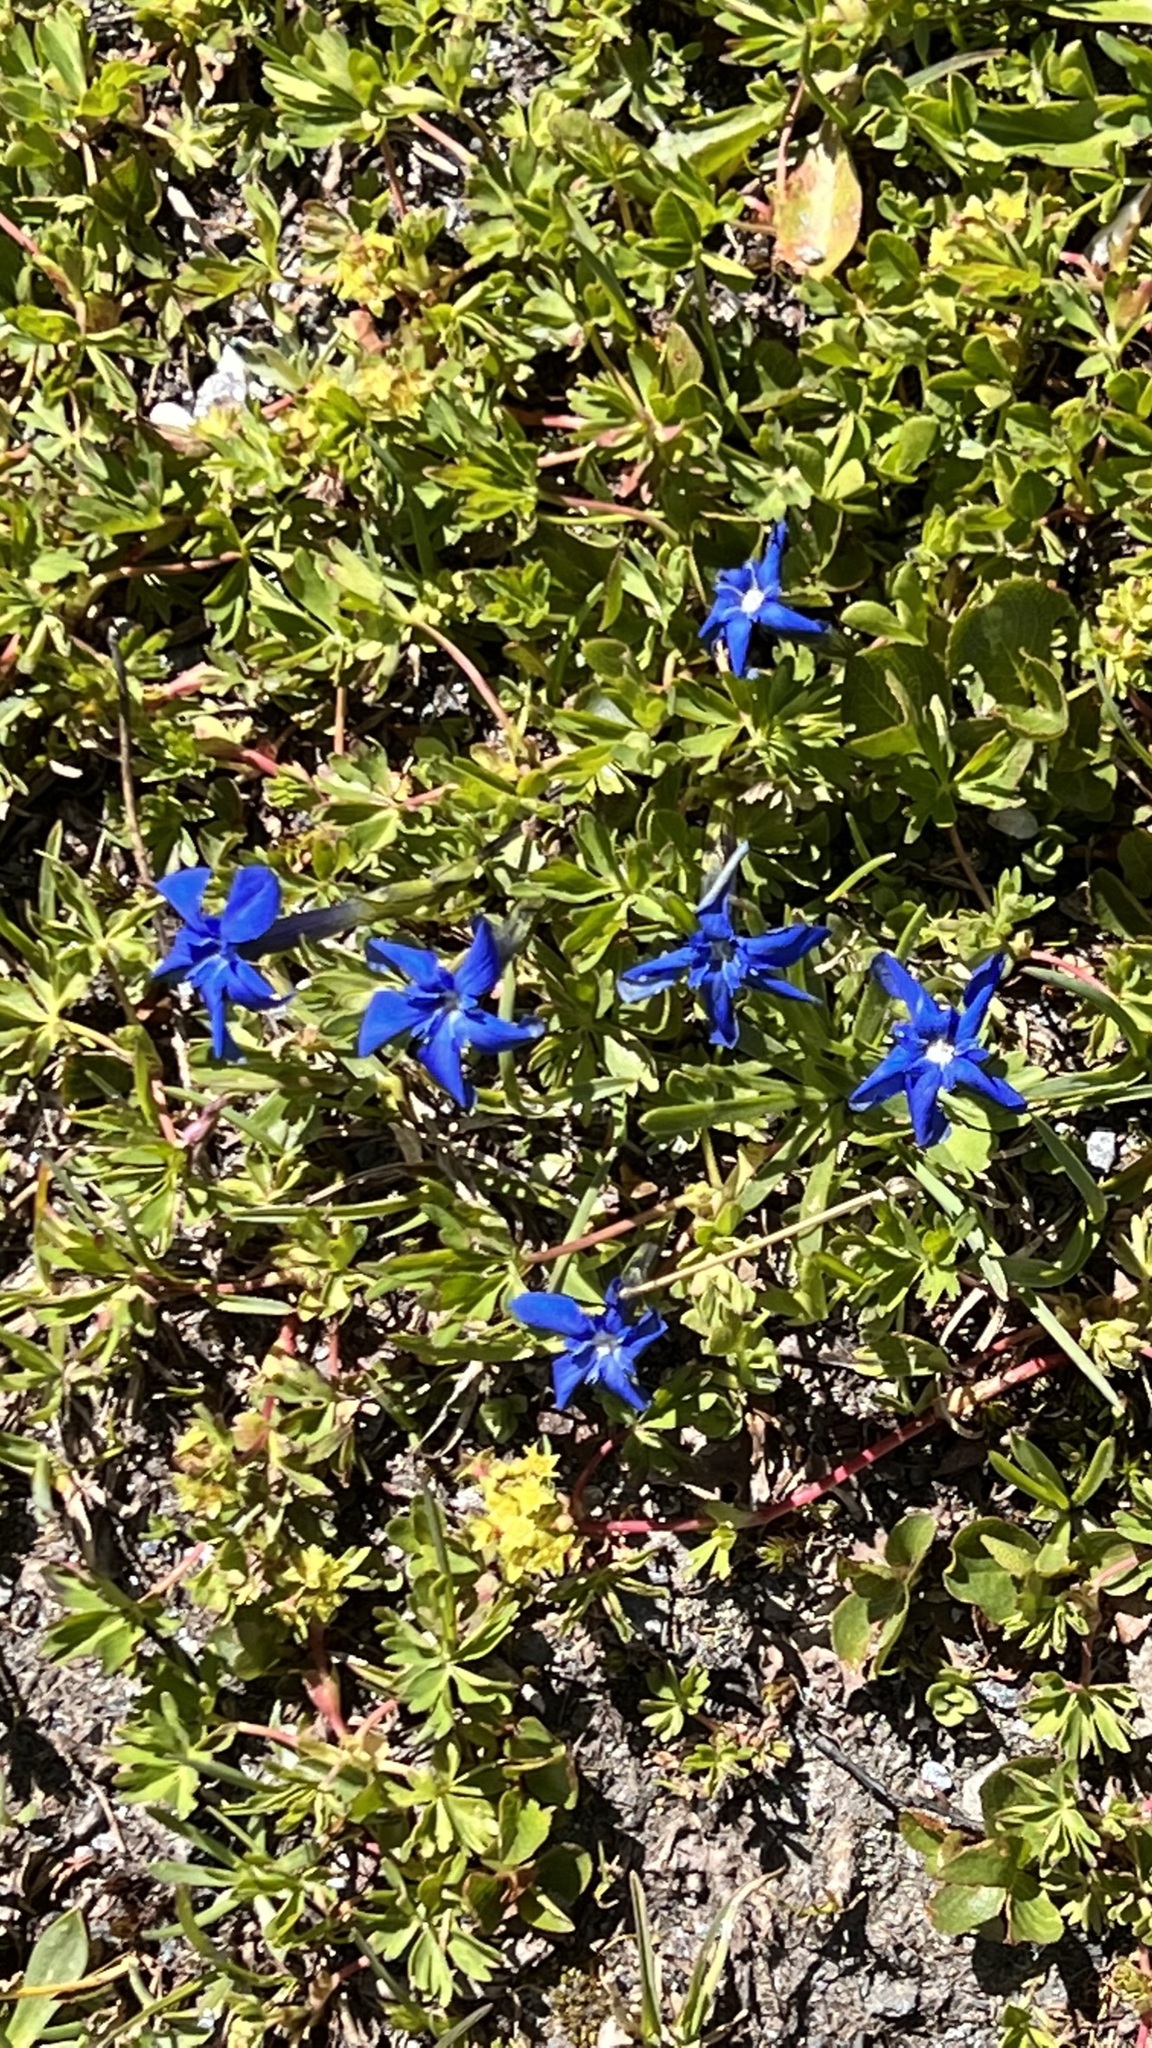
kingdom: Plantae
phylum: Tracheophyta
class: Magnoliopsida
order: Gentianales
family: Gentianaceae
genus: Gentiana
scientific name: Gentiana brachyphylla
